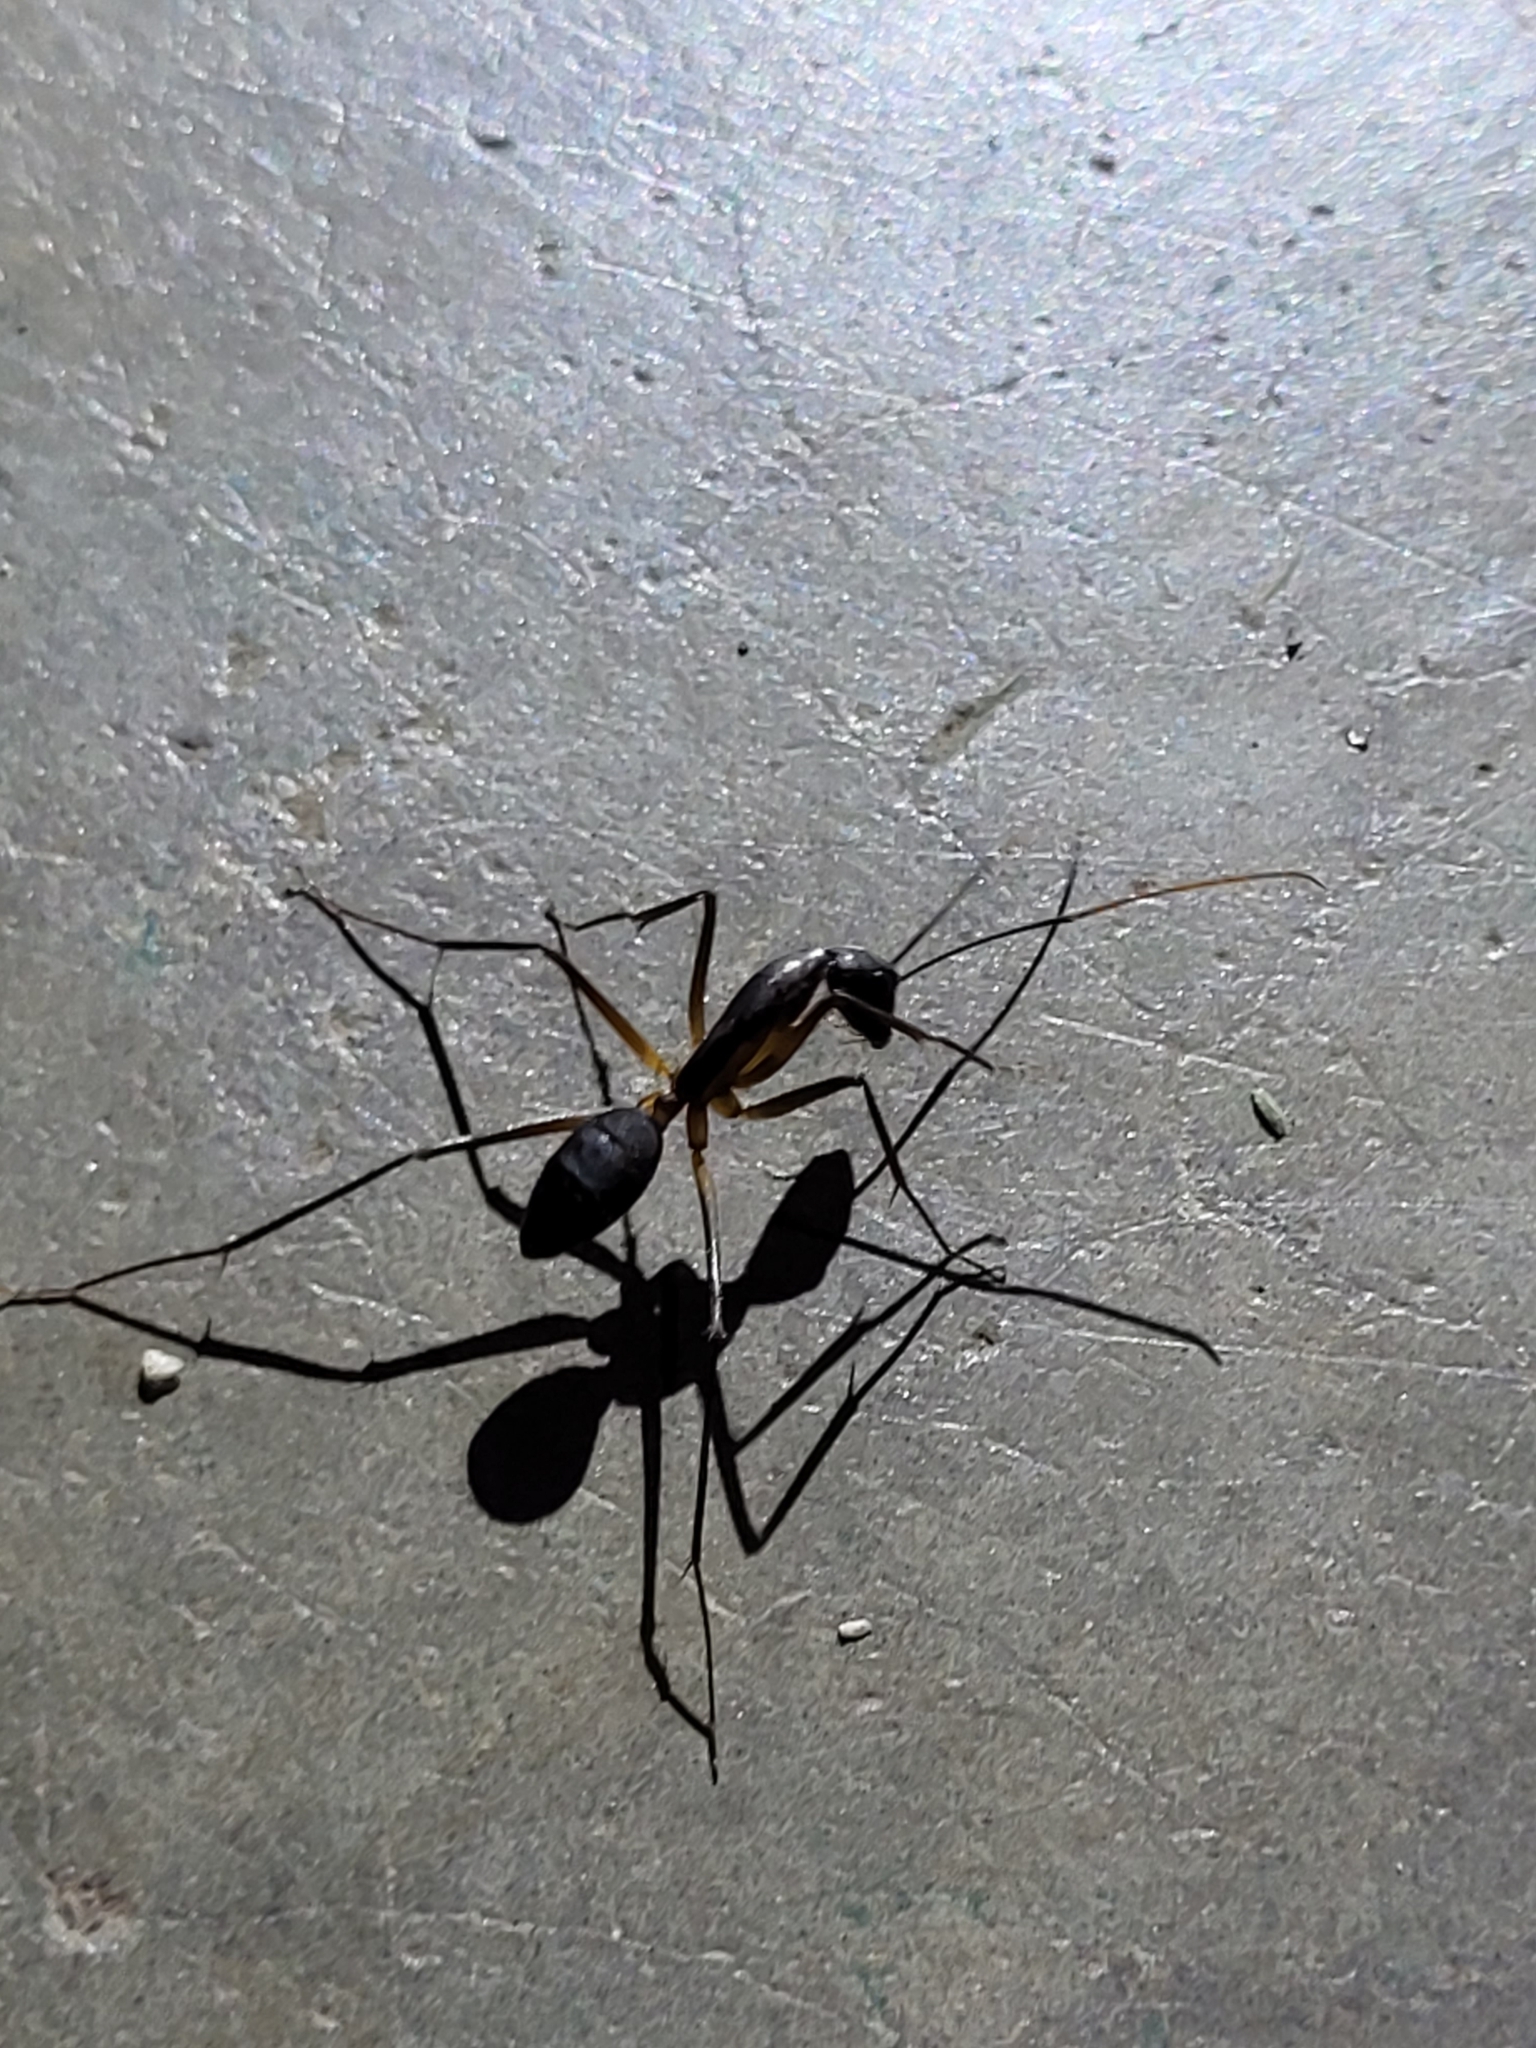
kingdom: Animalia
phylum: Arthropoda
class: Insecta
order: Hymenoptera
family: Formicidae
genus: Camponotus
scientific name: Camponotus etiolipes
